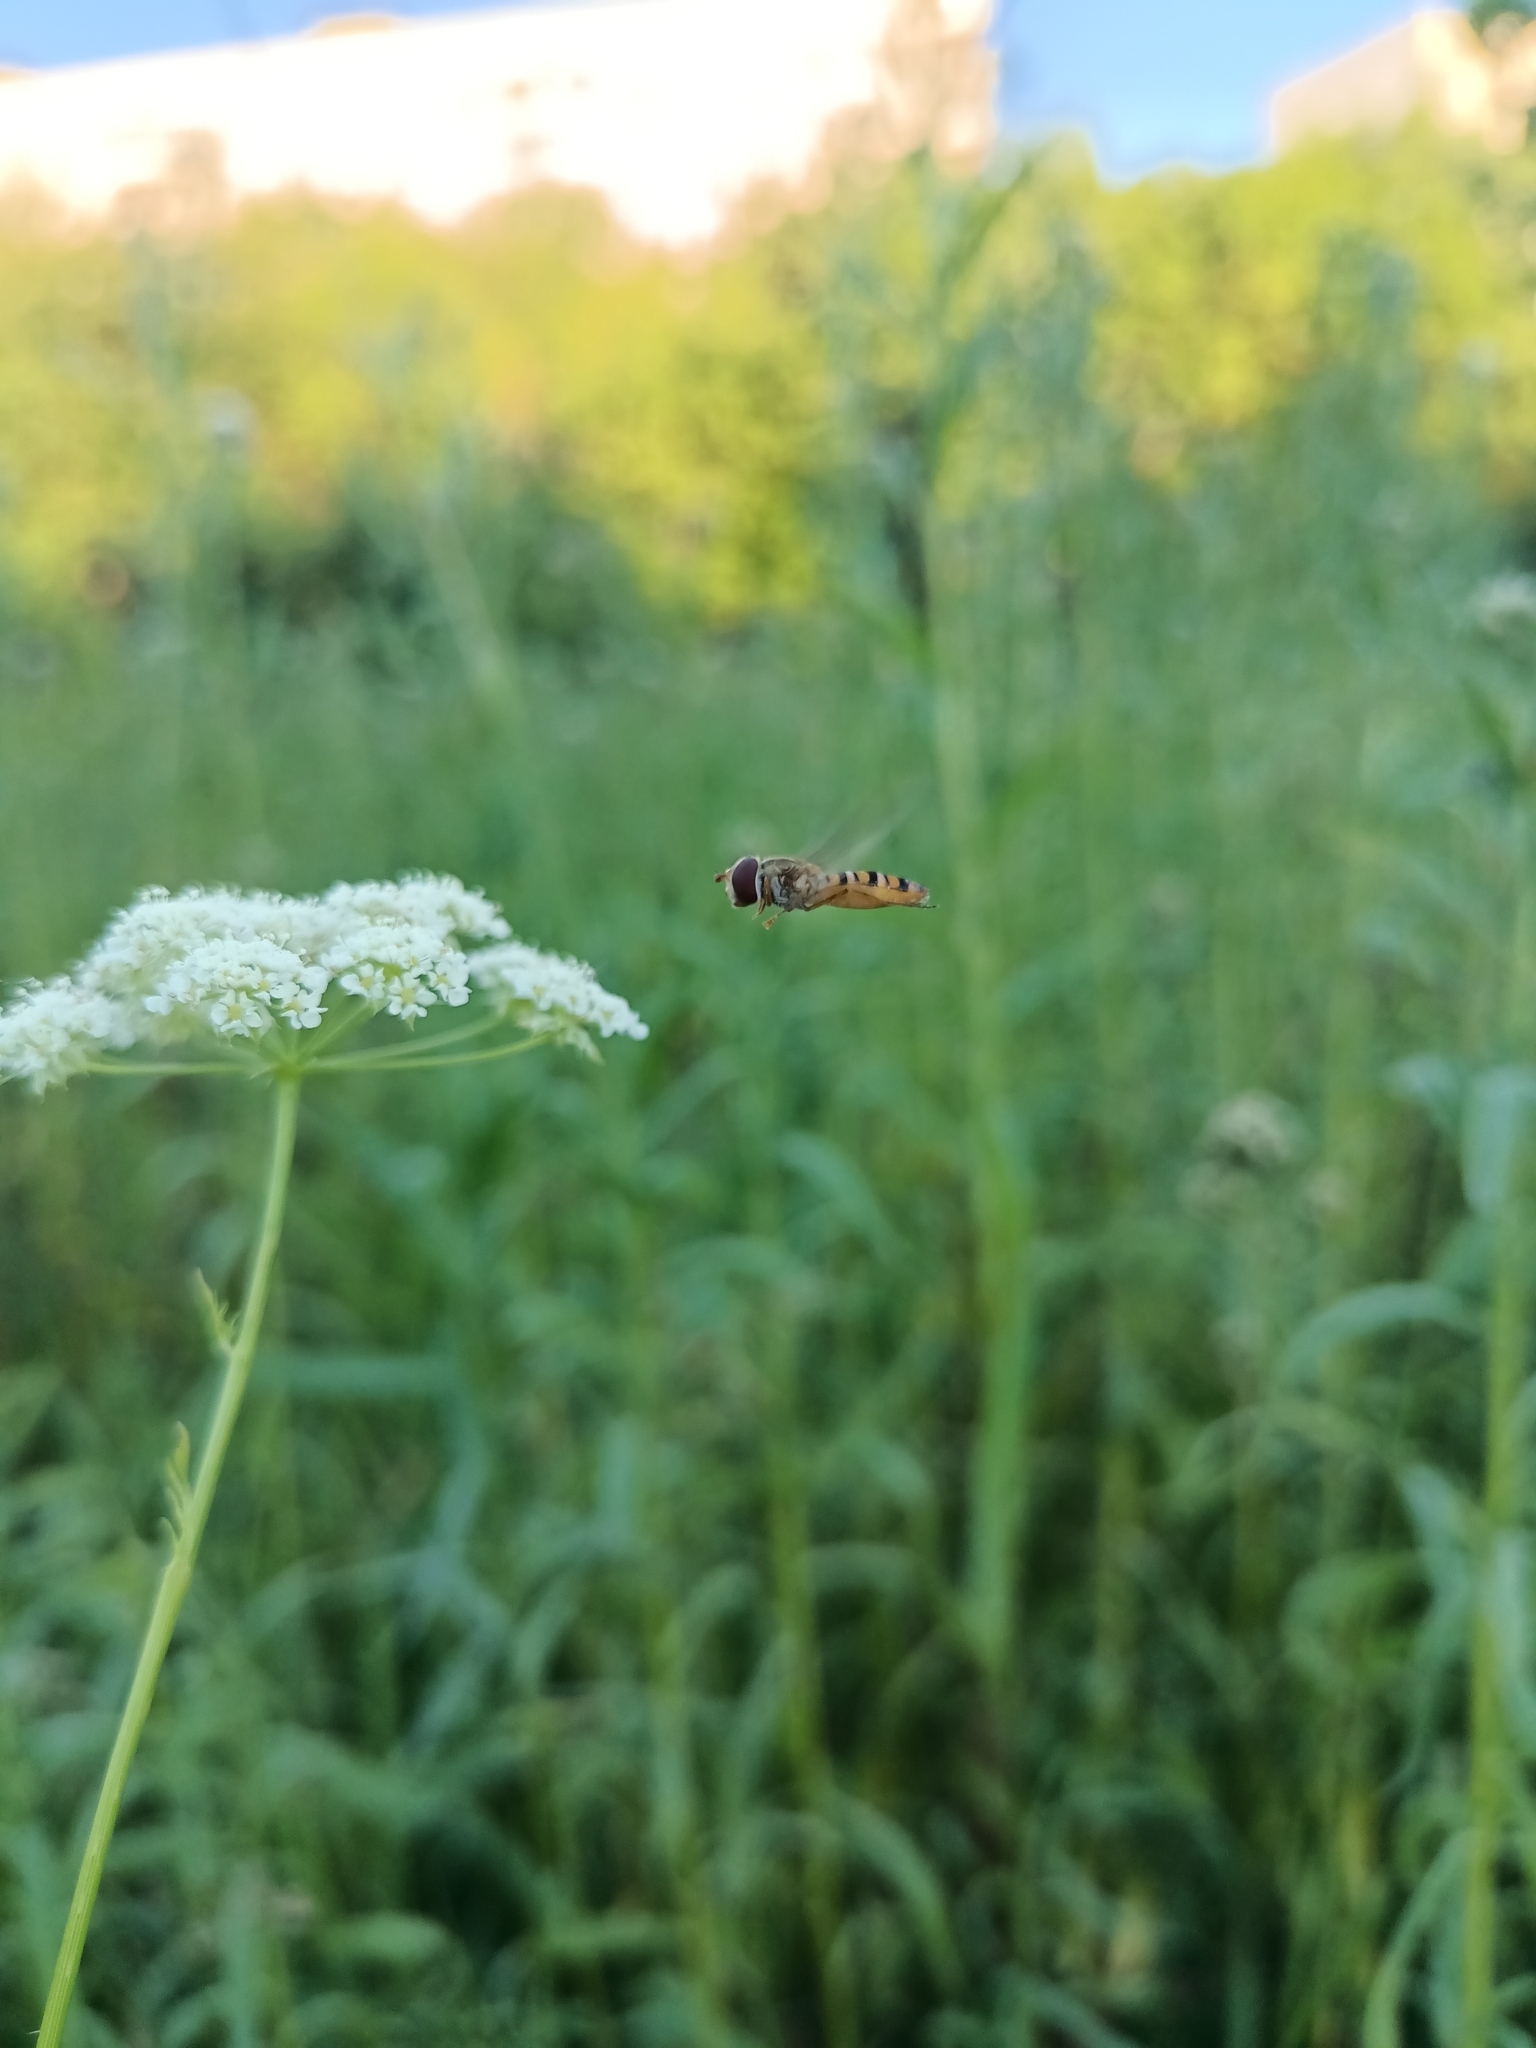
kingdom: Animalia
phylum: Arthropoda
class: Insecta
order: Diptera
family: Syrphidae
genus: Episyrphus
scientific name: Episyrphus balteatus
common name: Marmalade hoverfly
